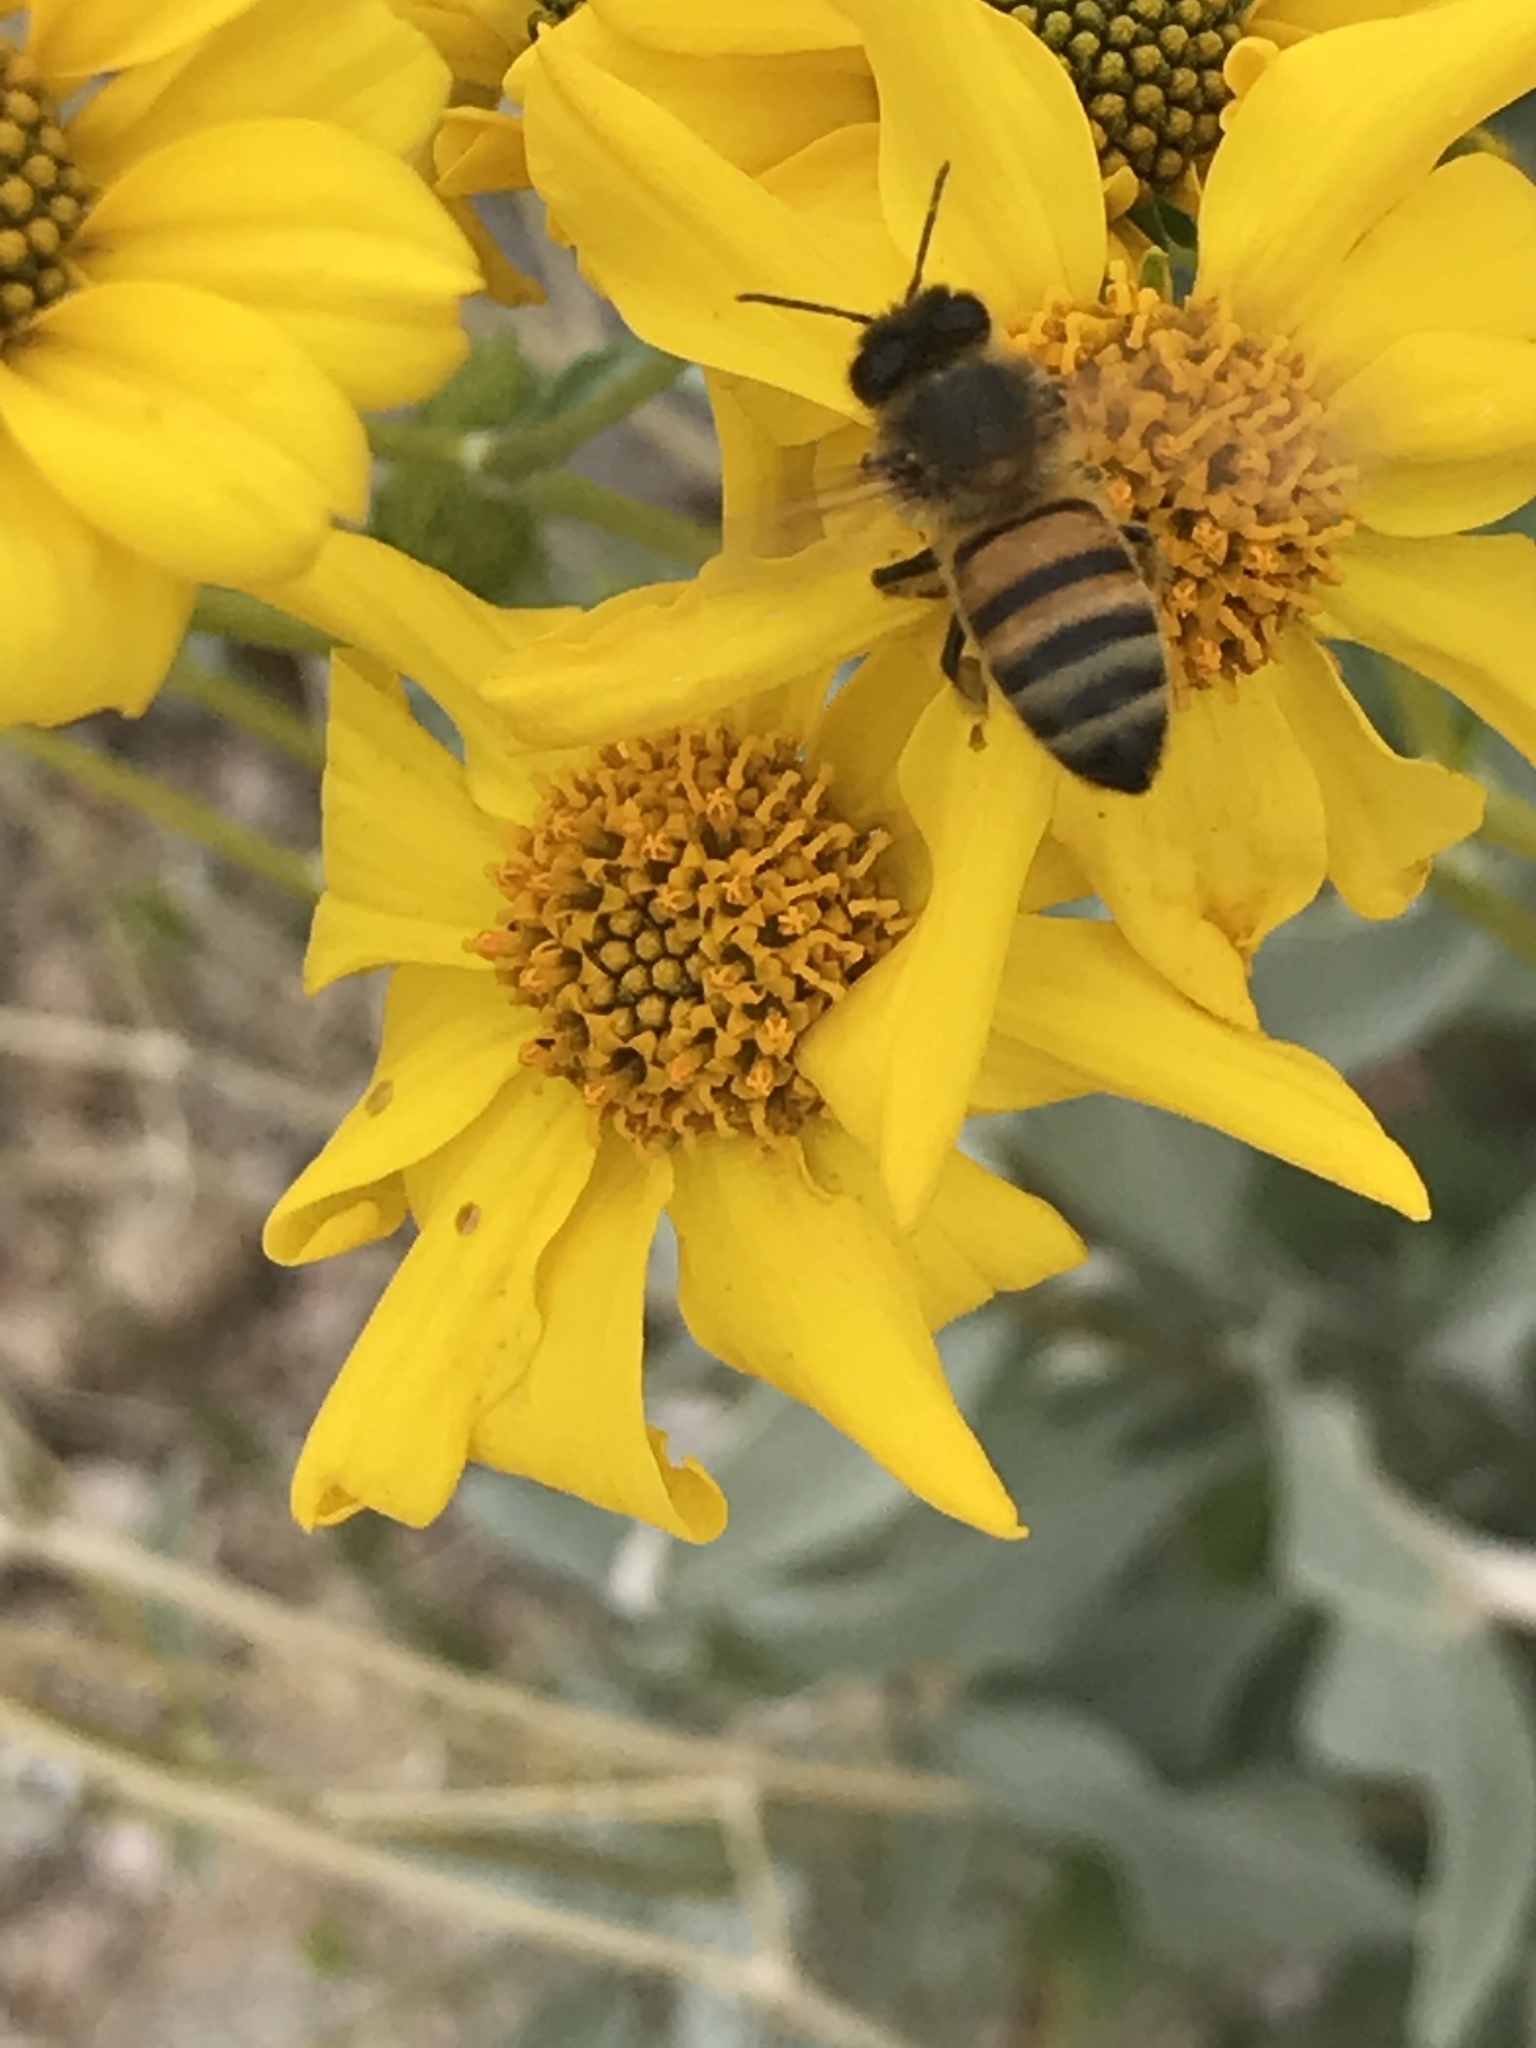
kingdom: Animalia
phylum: Arthropoda
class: Insecta
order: Hymenoptera
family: Apidae
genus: Apis
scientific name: Apis mellifera
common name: Honey bee
